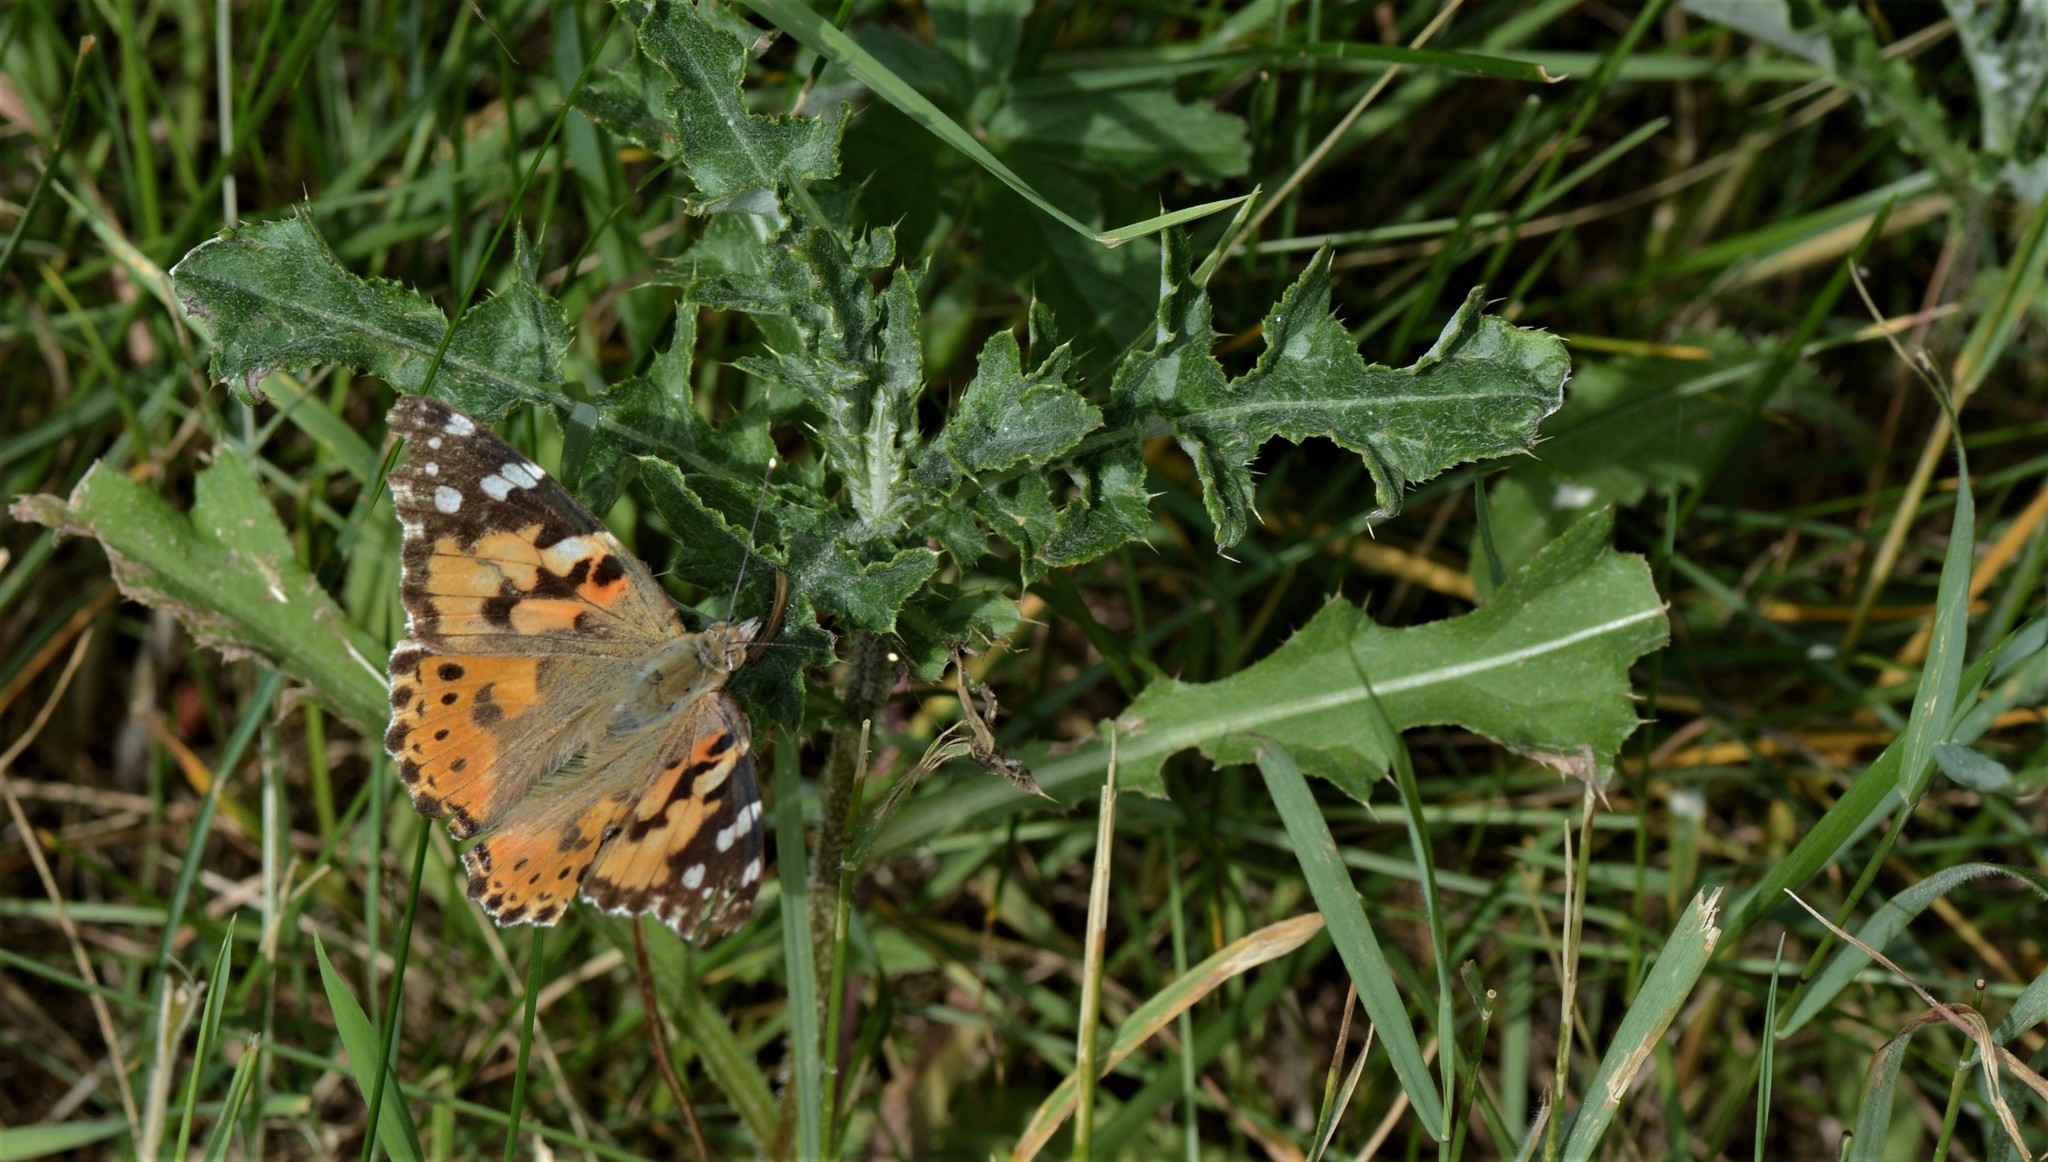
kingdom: Animalia
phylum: Arthropoda
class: Insecta
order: Lepidoptera
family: Nymphalidae
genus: Vanessa
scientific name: Vanessa cardui
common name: Painted lady
